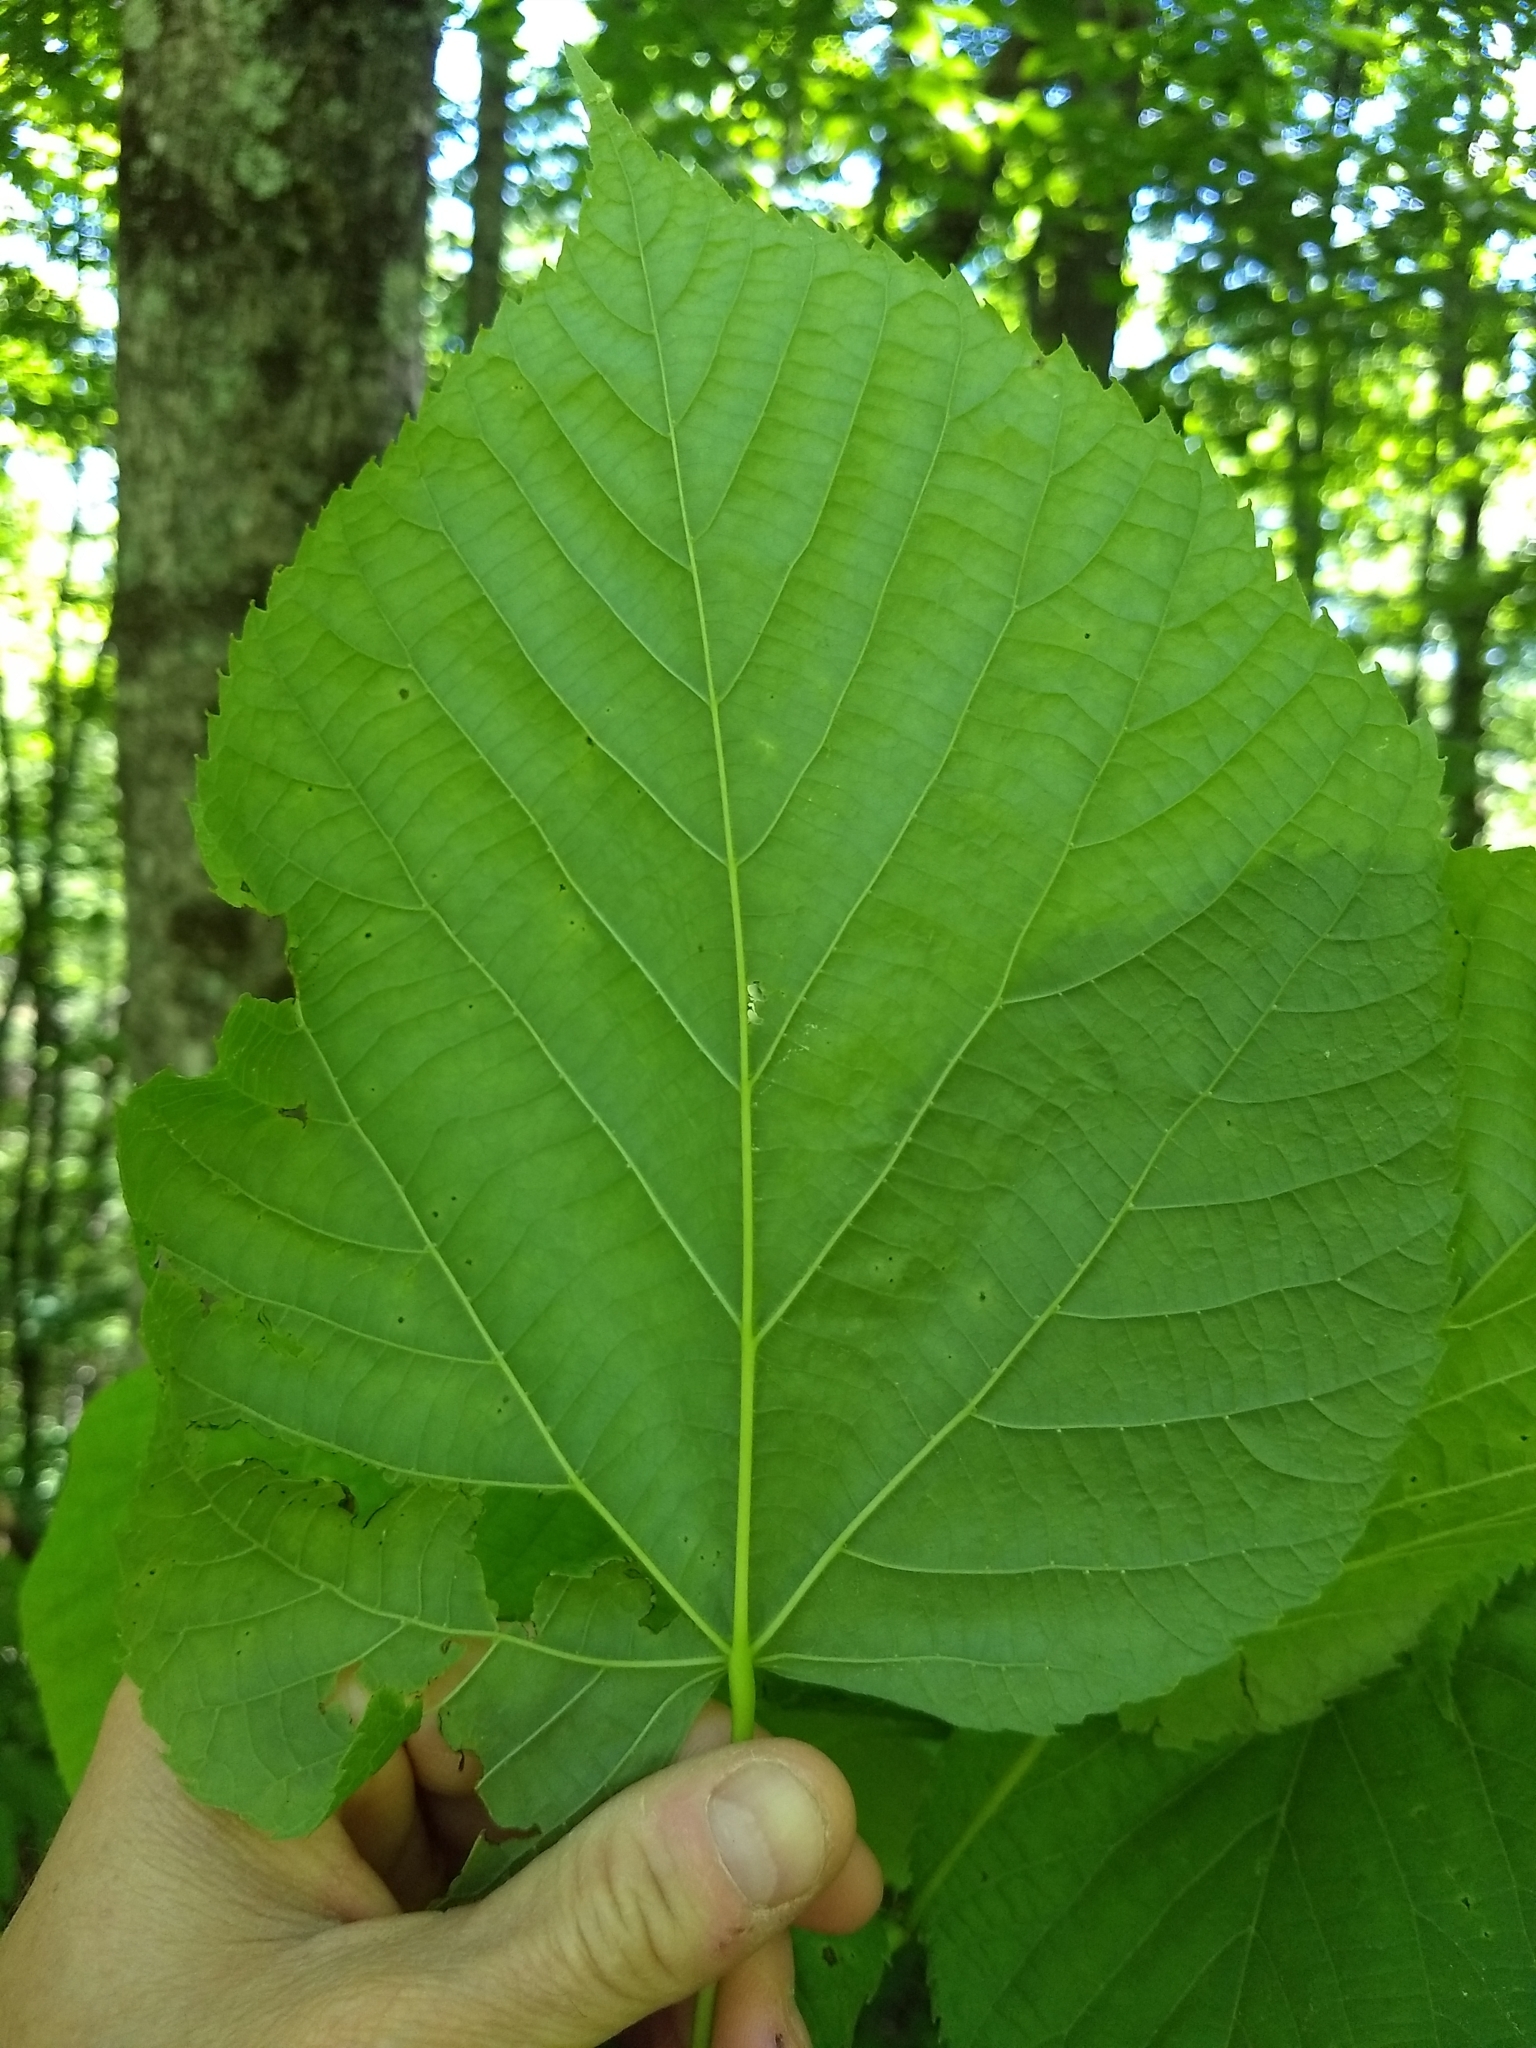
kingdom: Plantae
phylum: Tracheophyta
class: Magnoliopsida
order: Malvales
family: Malvaceae
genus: Tilia
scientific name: Tilia americana
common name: Basswood
